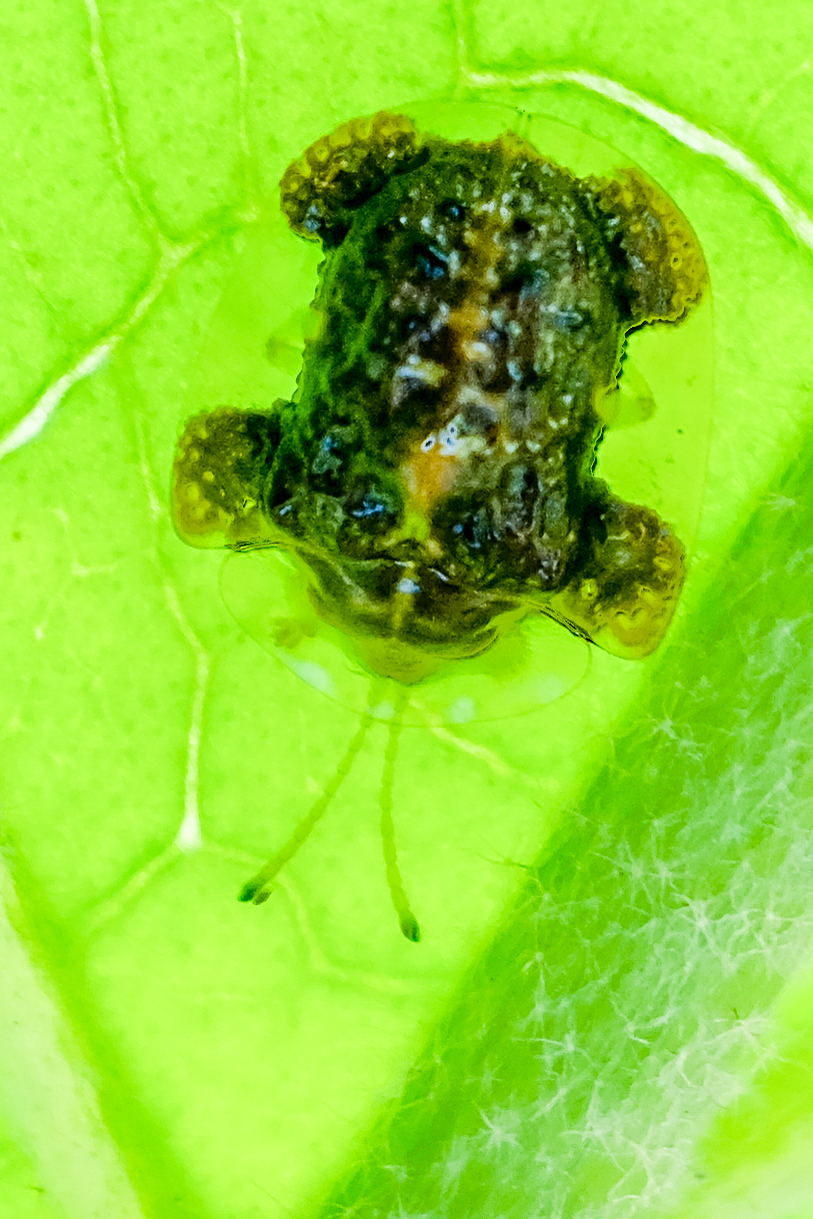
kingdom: Animalia
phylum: Arthropoda
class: Insecta
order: Coleoptera
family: Chrysomelidae
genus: Helocassis
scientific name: Helocassis clavata
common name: Clavate tortoise beetle
